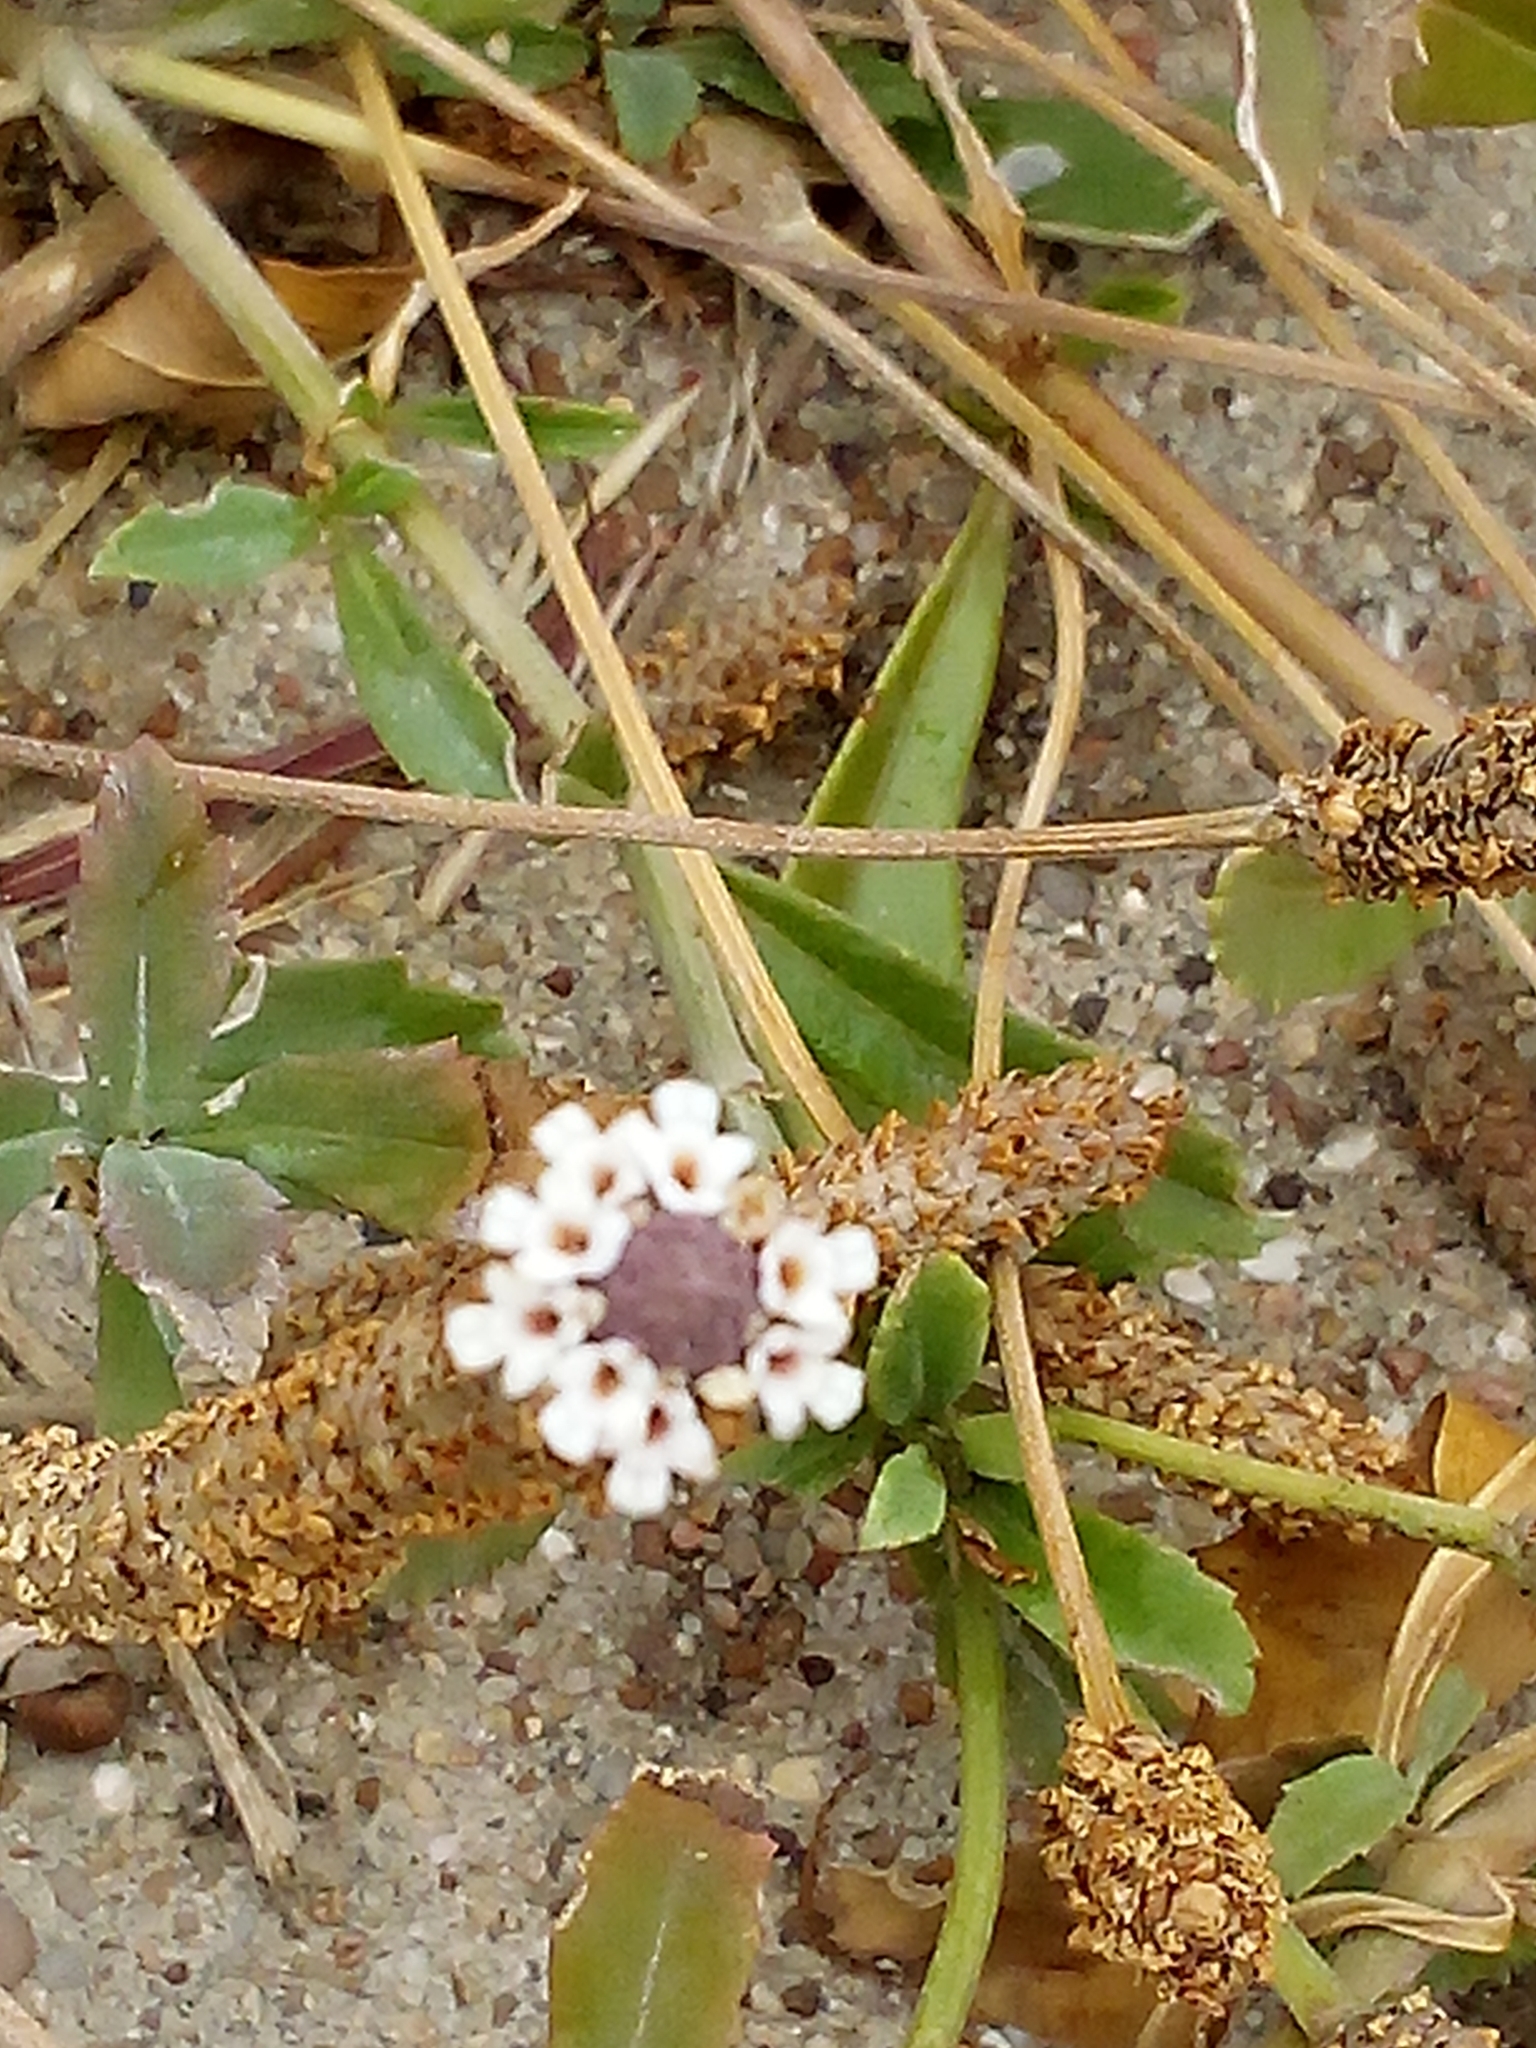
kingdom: Plantae
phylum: Tracheophyta
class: Magnoliopsida
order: Lamiales
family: Verbenaceae
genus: Phyla
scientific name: Phyla nodiflora
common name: Frogfruit
